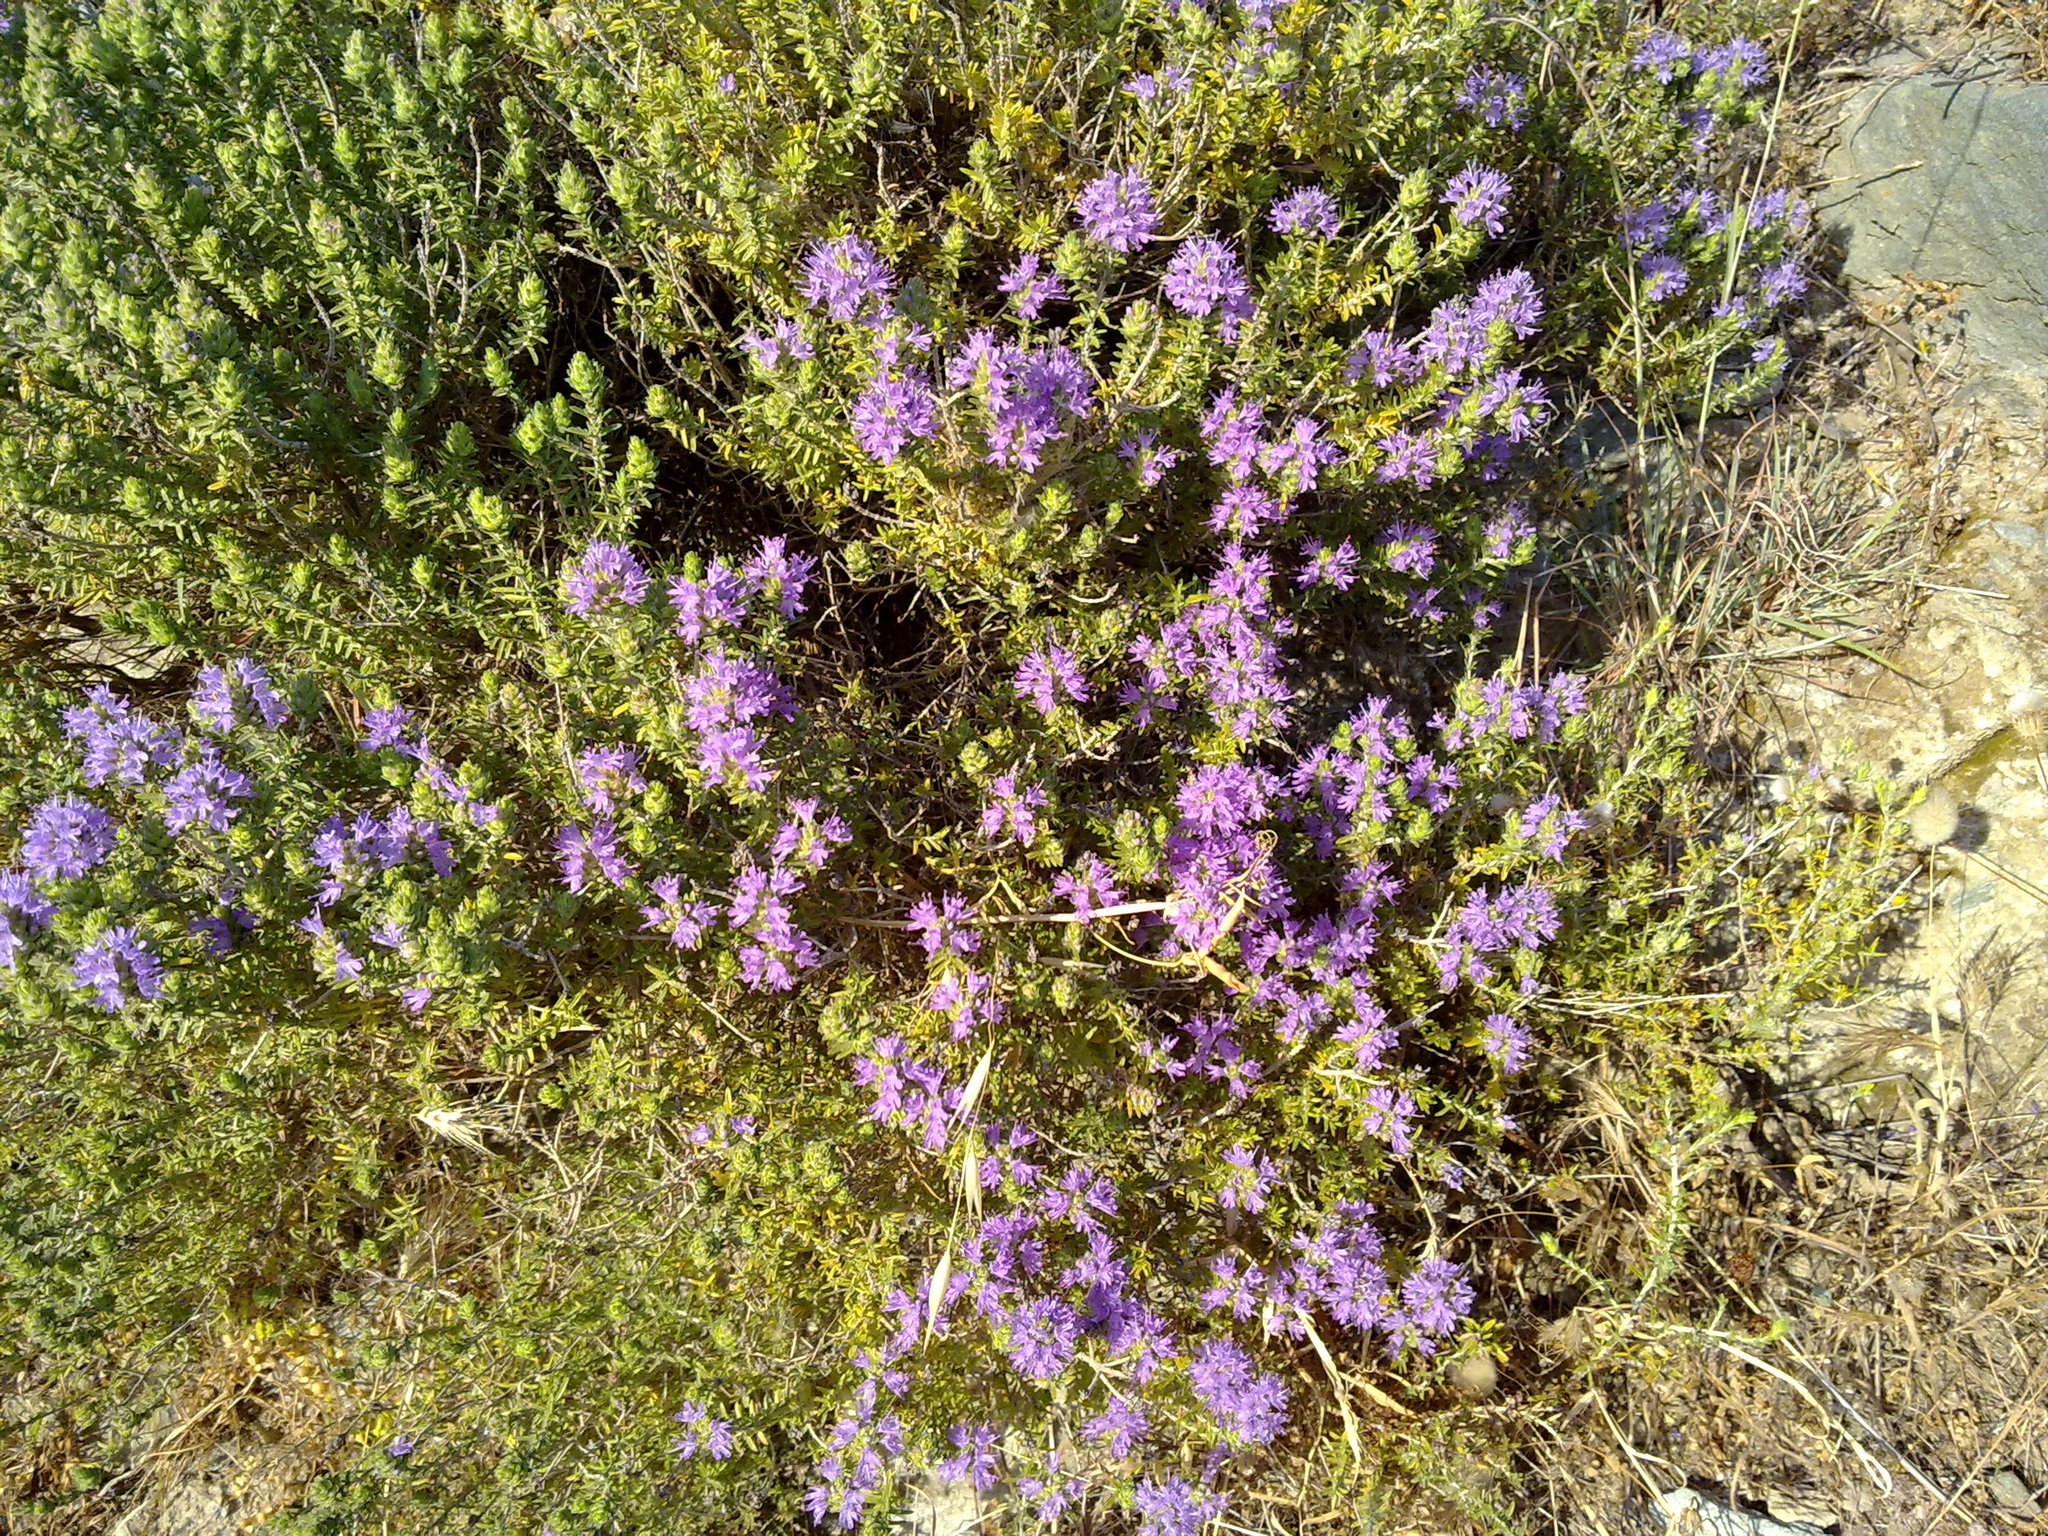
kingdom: Plantae
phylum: Tracheophyta
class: Magnoliopsida
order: Lamiales
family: Lamiaceae
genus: Thymbra
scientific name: Thymbra capitata
